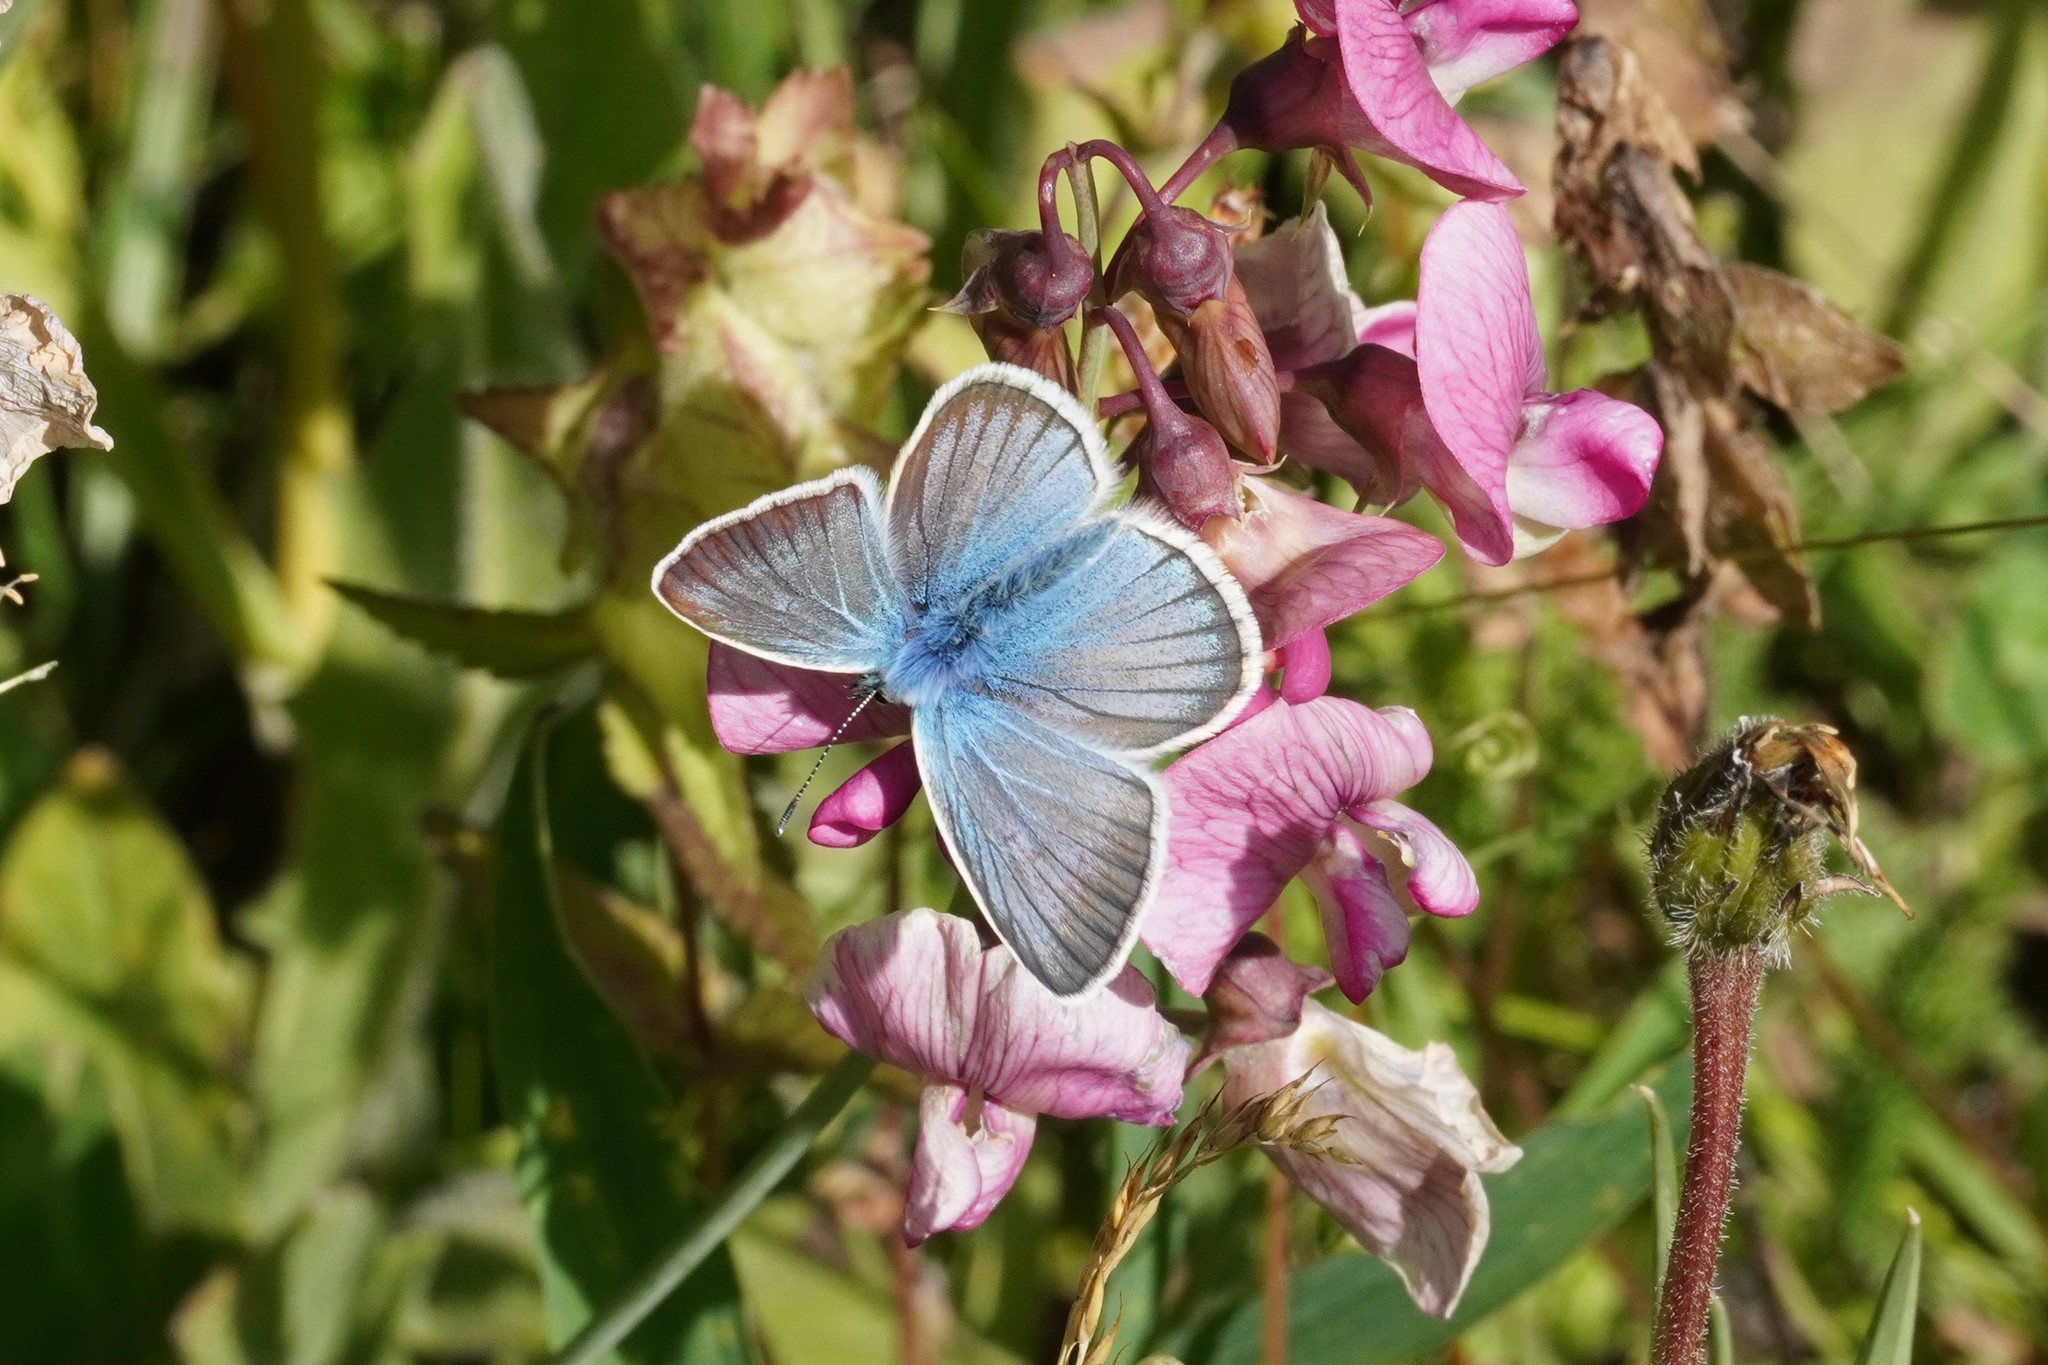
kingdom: Animalia
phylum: Arthropoda
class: Insecta
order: Lepidoptera
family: Lycaenidae
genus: Agrodiaetus
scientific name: Agrodiaetus damon
